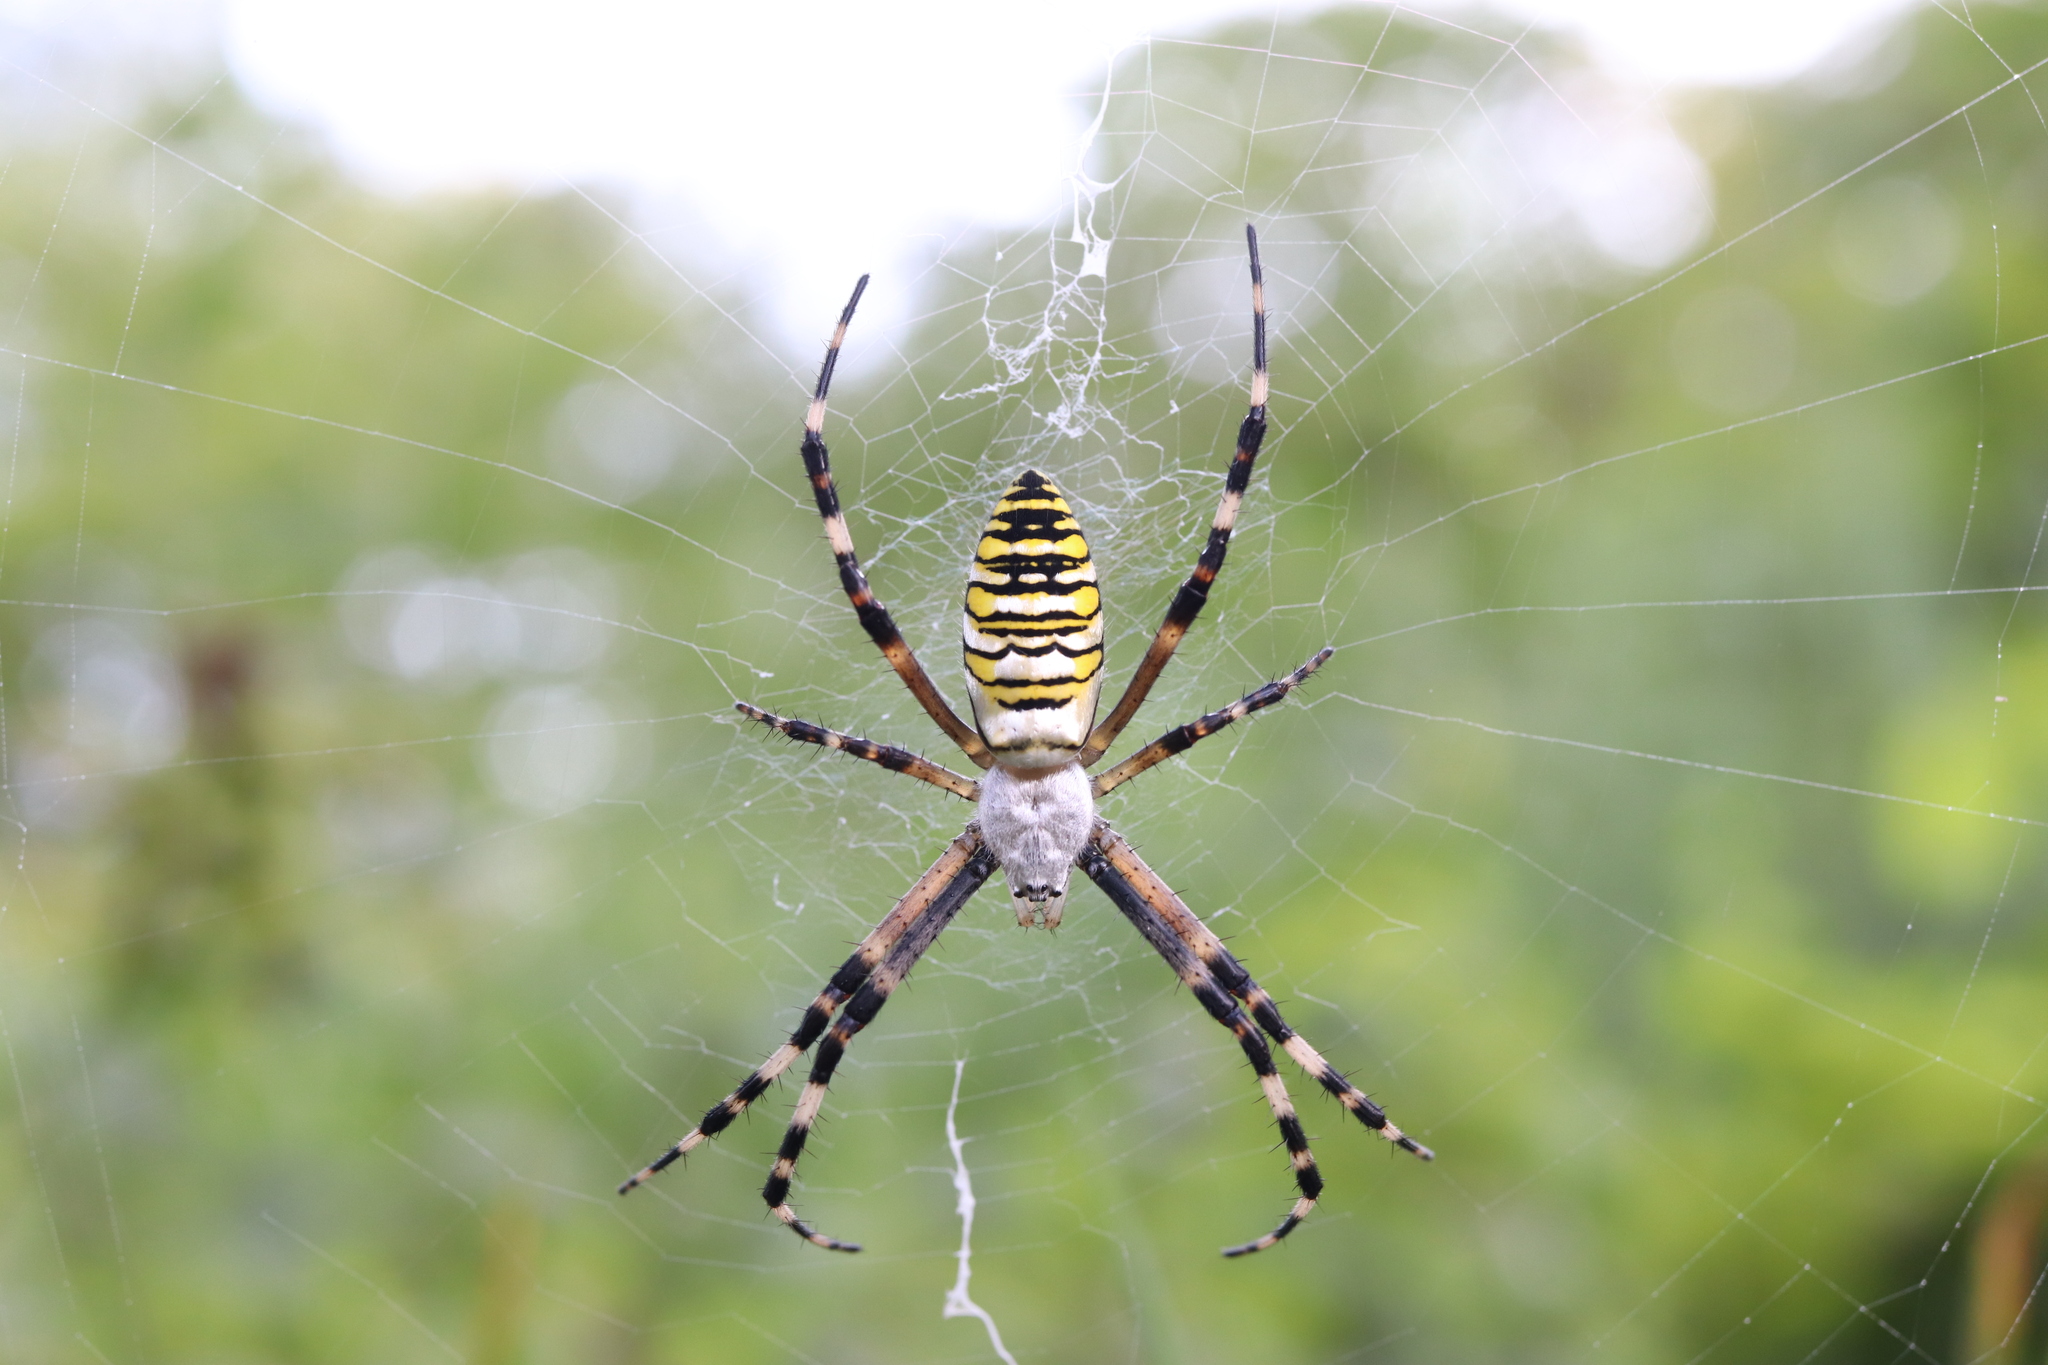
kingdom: Animalia
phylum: Arthropoda
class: Arachnida
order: Araneae
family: Araneidae
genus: Argiope
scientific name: Argiope bruennichi
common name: Wasp spider
